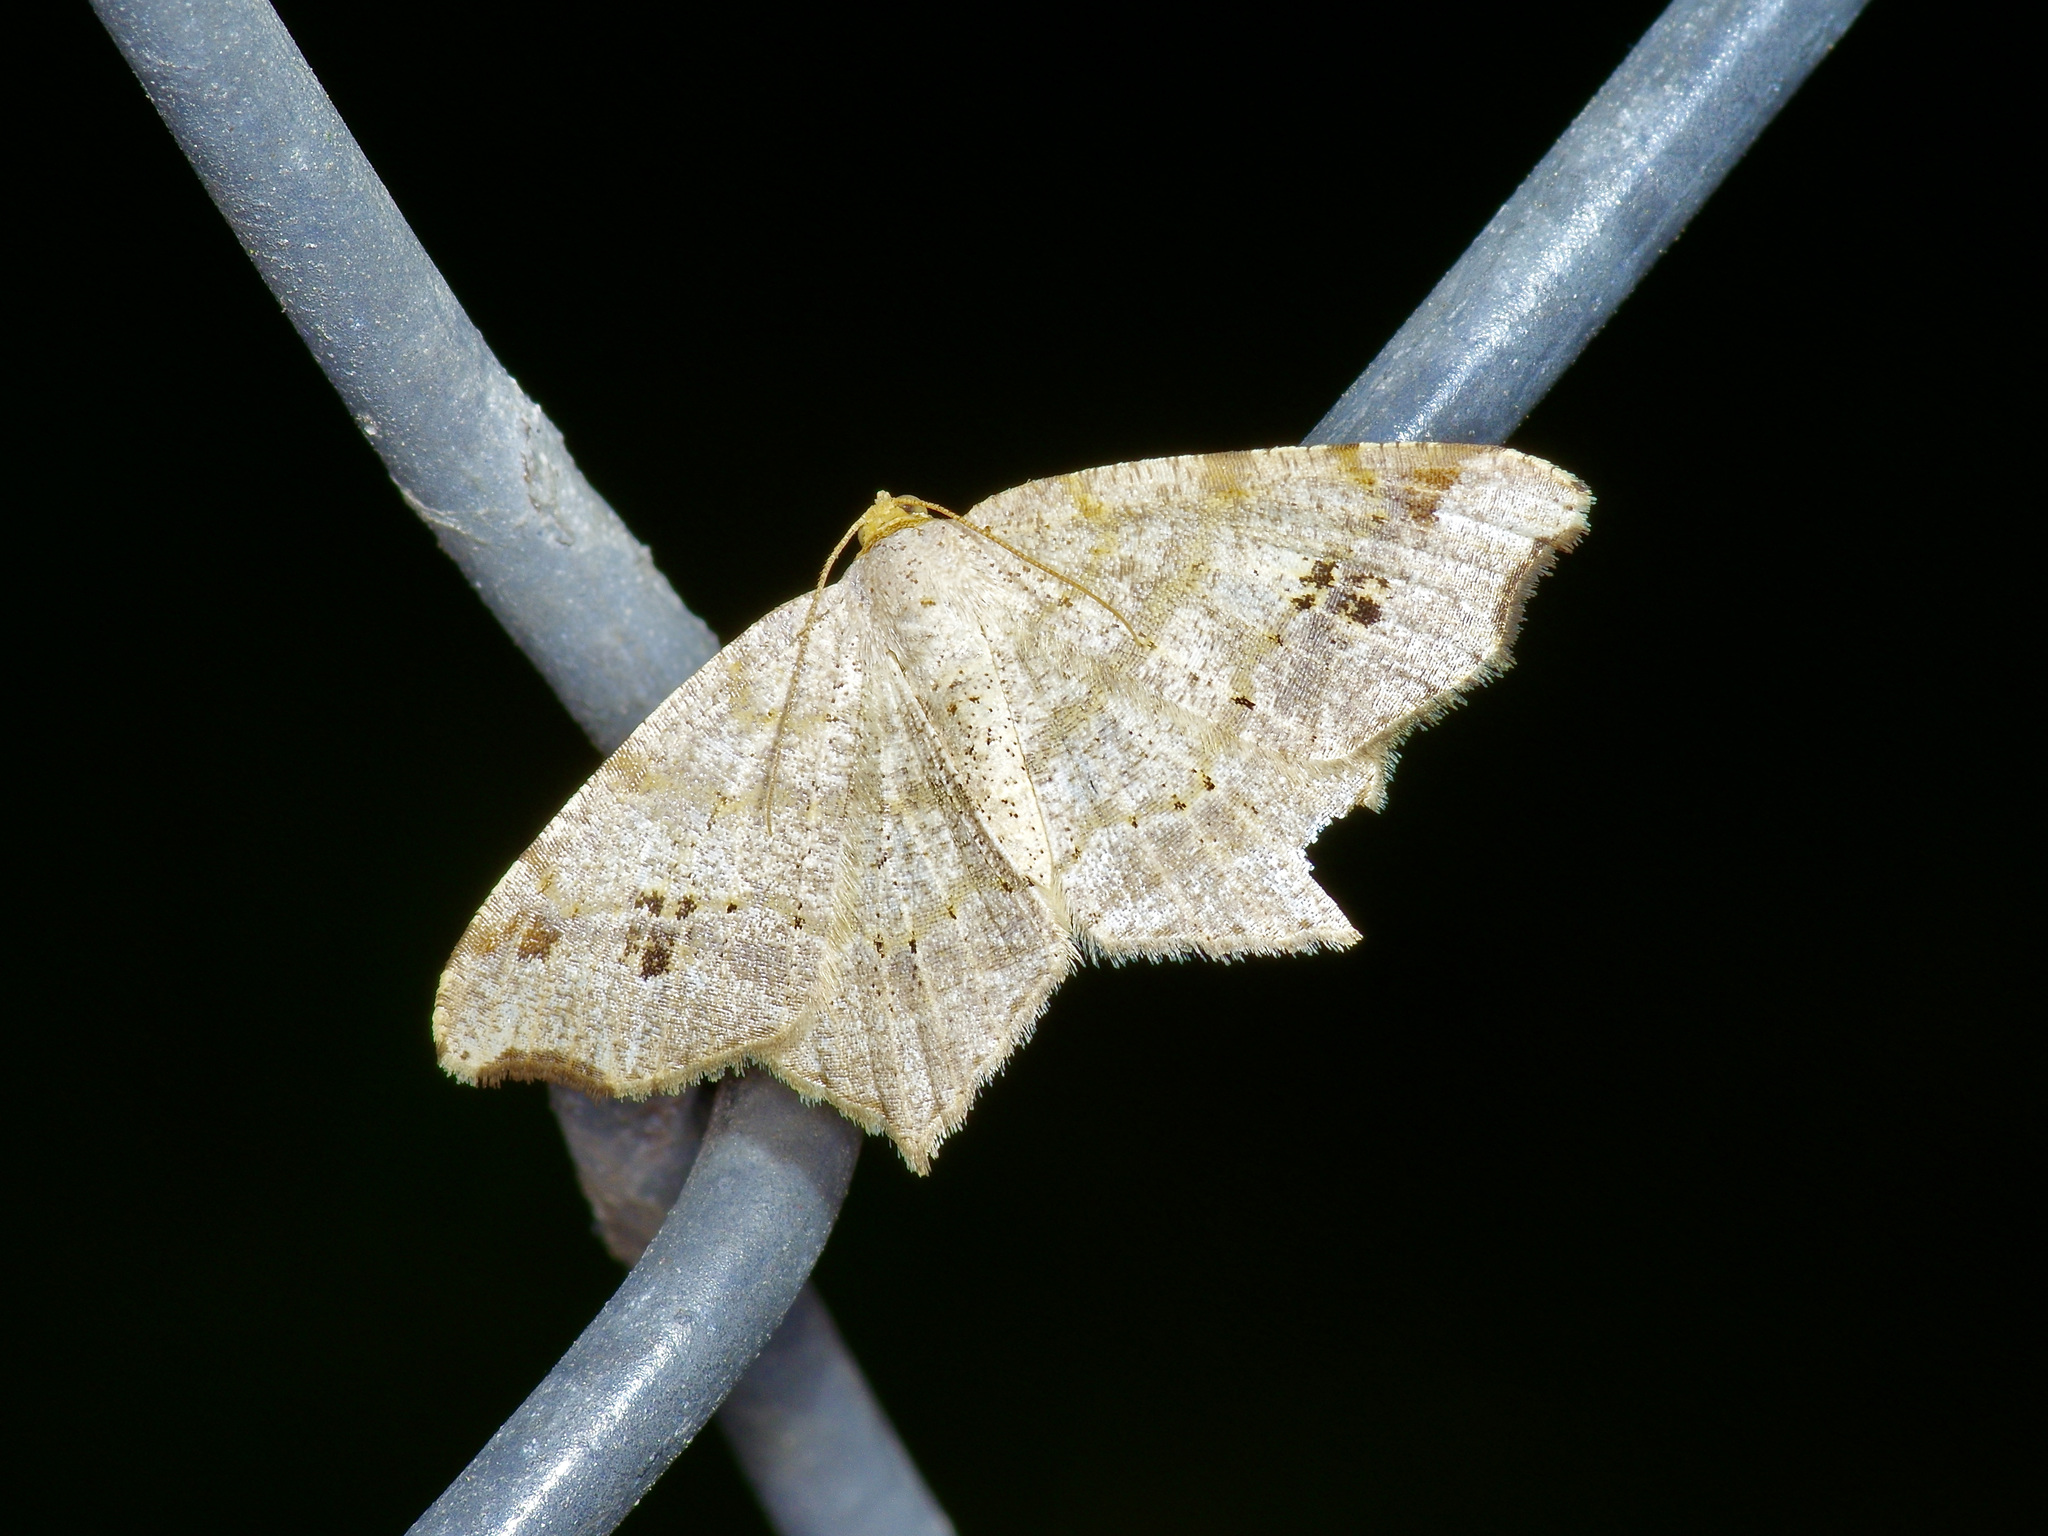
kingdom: Animalia
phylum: Arthropoda
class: Insecta
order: Lepidoptera
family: Geometridae
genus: Macaria
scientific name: Macaria aemulataria
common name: Common angle
